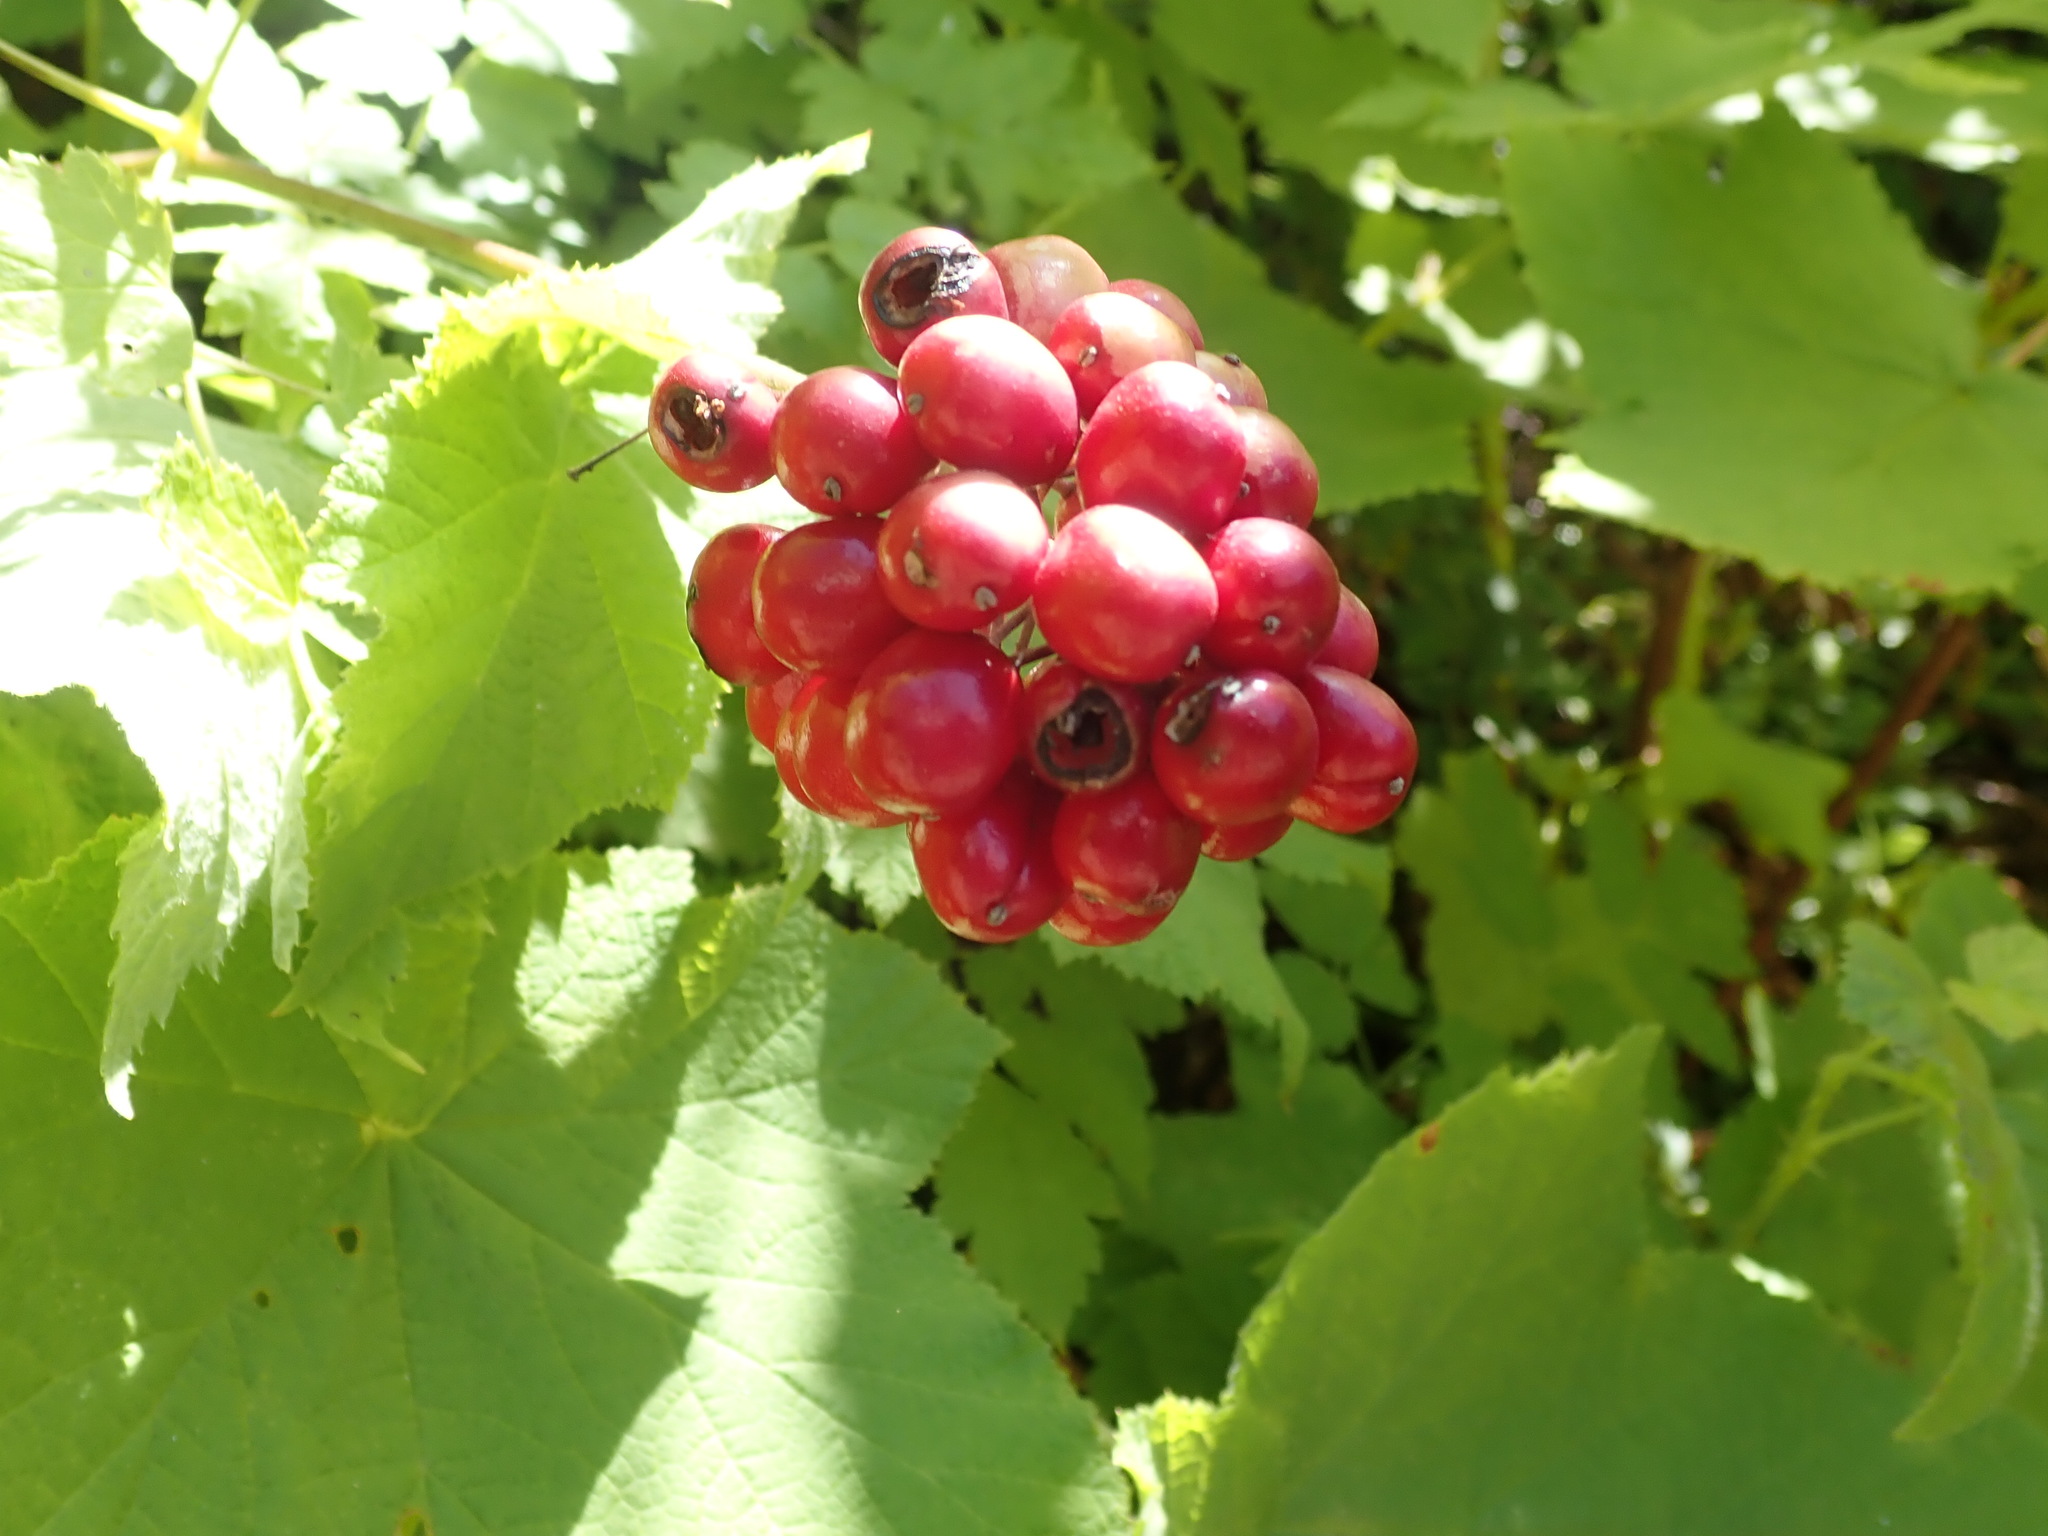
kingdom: Plantae
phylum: Tracheophyta
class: Magnoliopsida
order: Ranunculales
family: Ranunculaceae
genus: Actaea
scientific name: Actaea rubra
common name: Red baneberry
